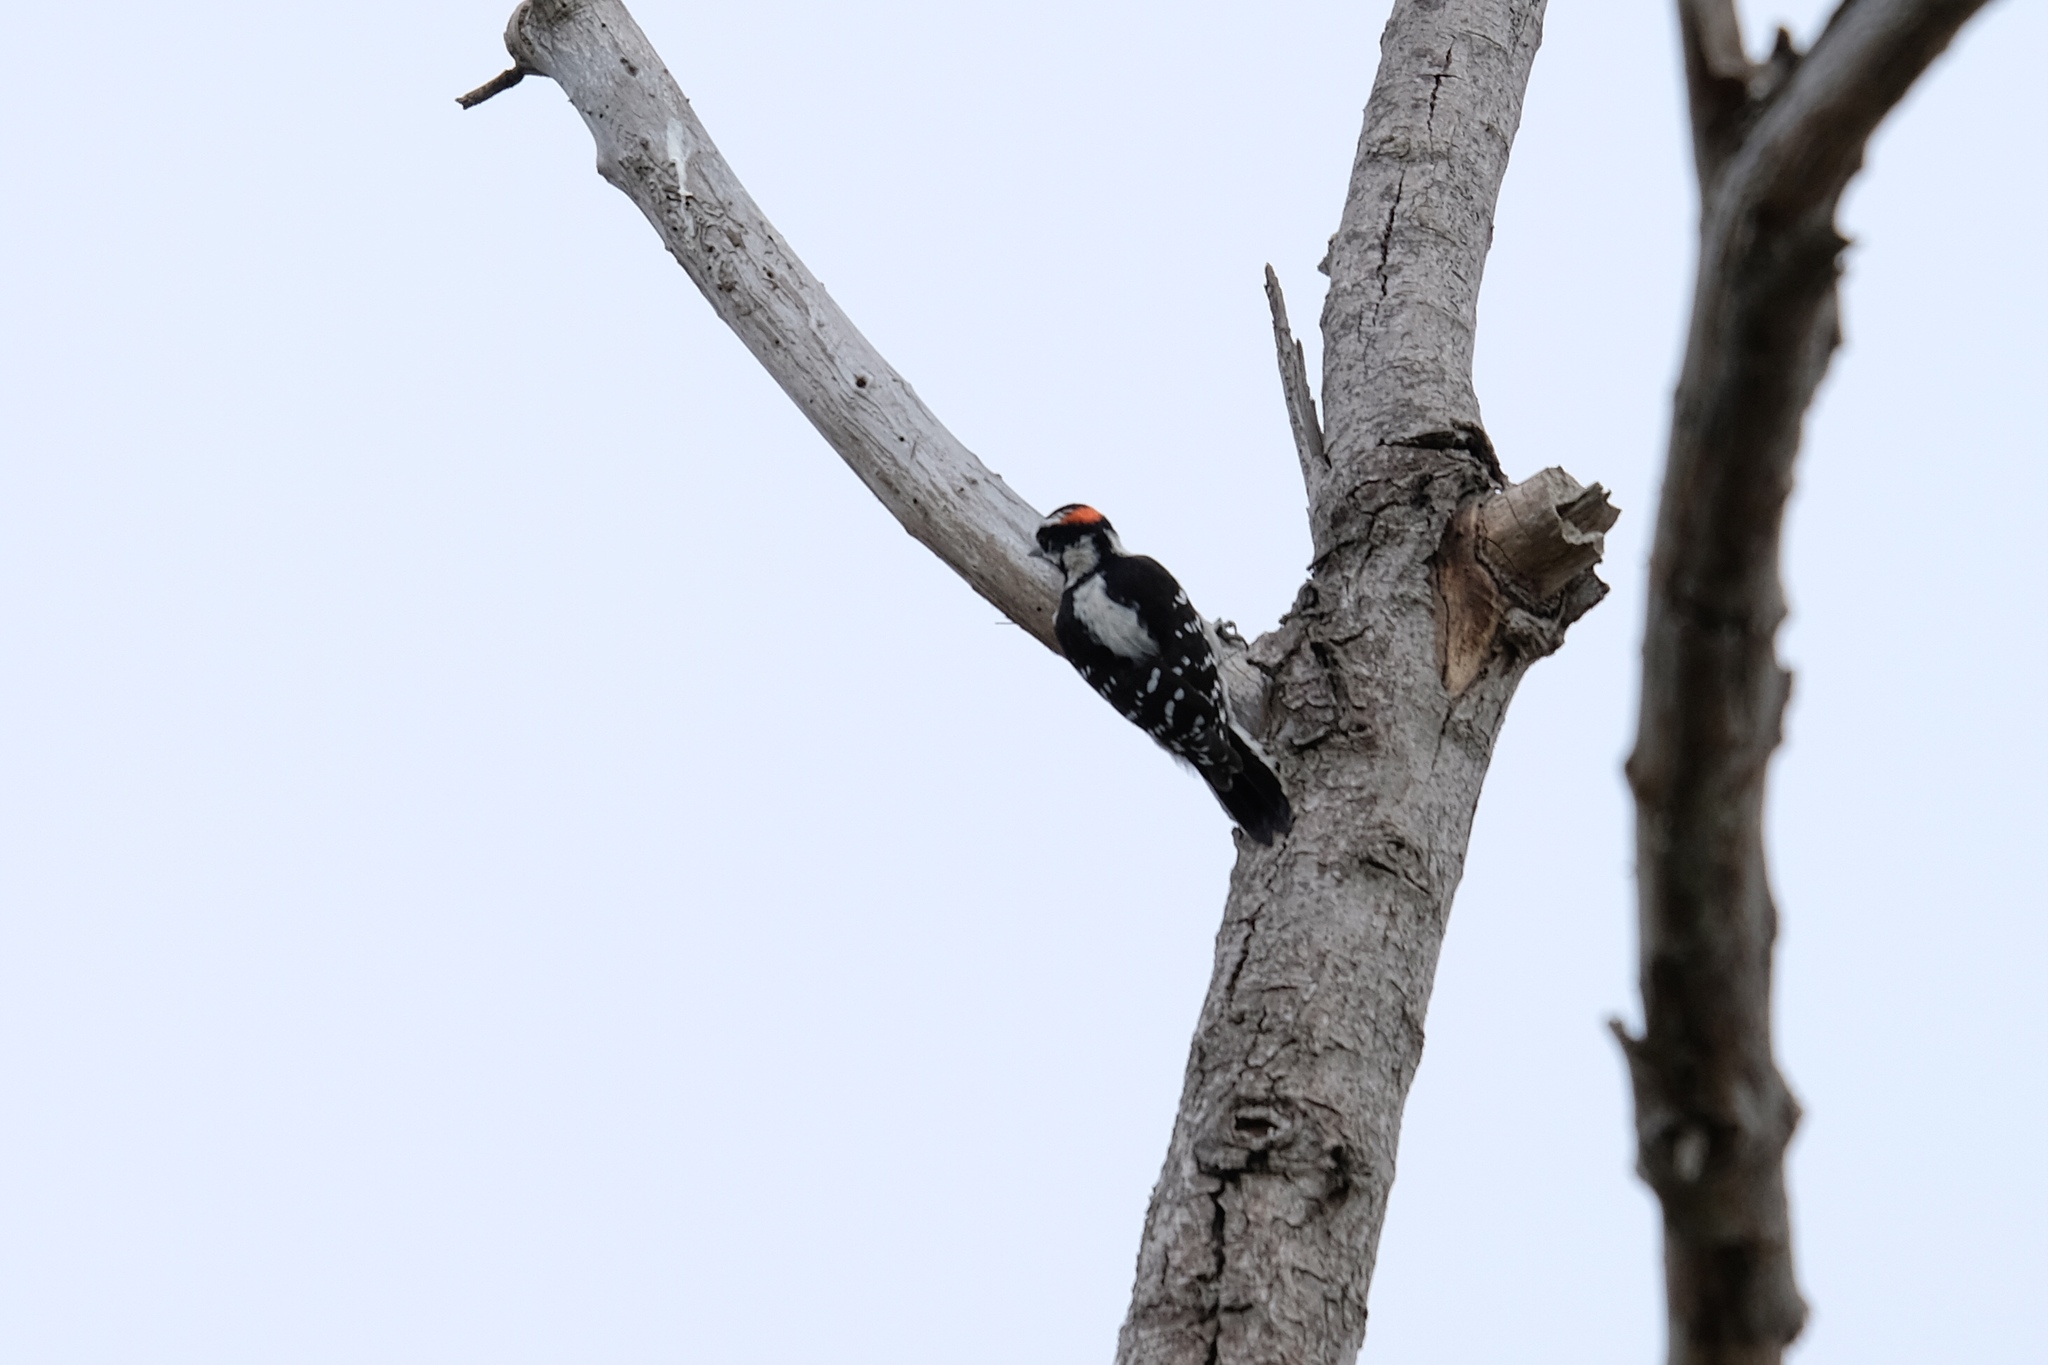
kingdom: Animalia
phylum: Chordata
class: Aves
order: Piciformes
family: Picidae
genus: Dryobates
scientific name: Dryobates pubescens
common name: Downy woodpecker
